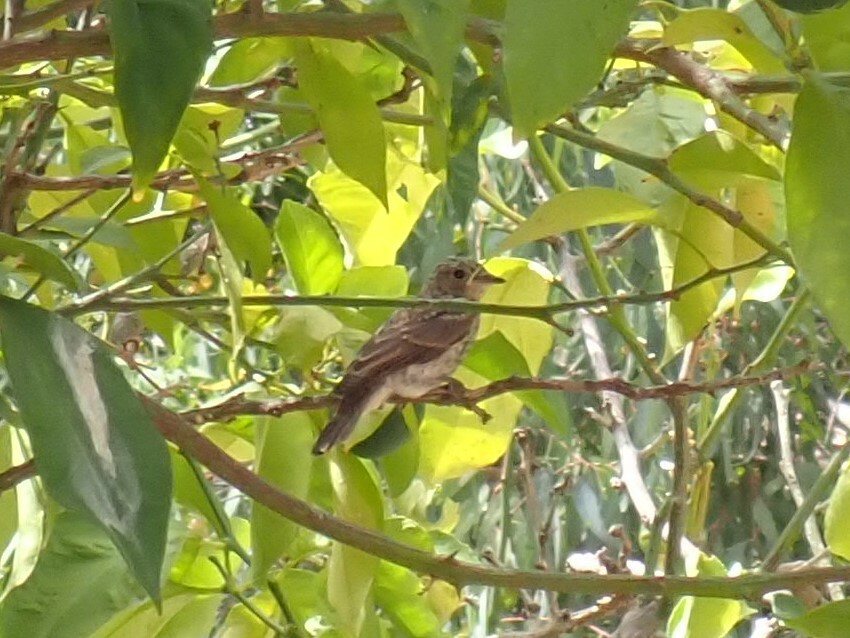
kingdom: Animalia
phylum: Chordata
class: Aves
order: Passeriformes
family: Muscicapidae
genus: Muscicapa
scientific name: Muscicapa striata
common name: Spotted flycatcher
